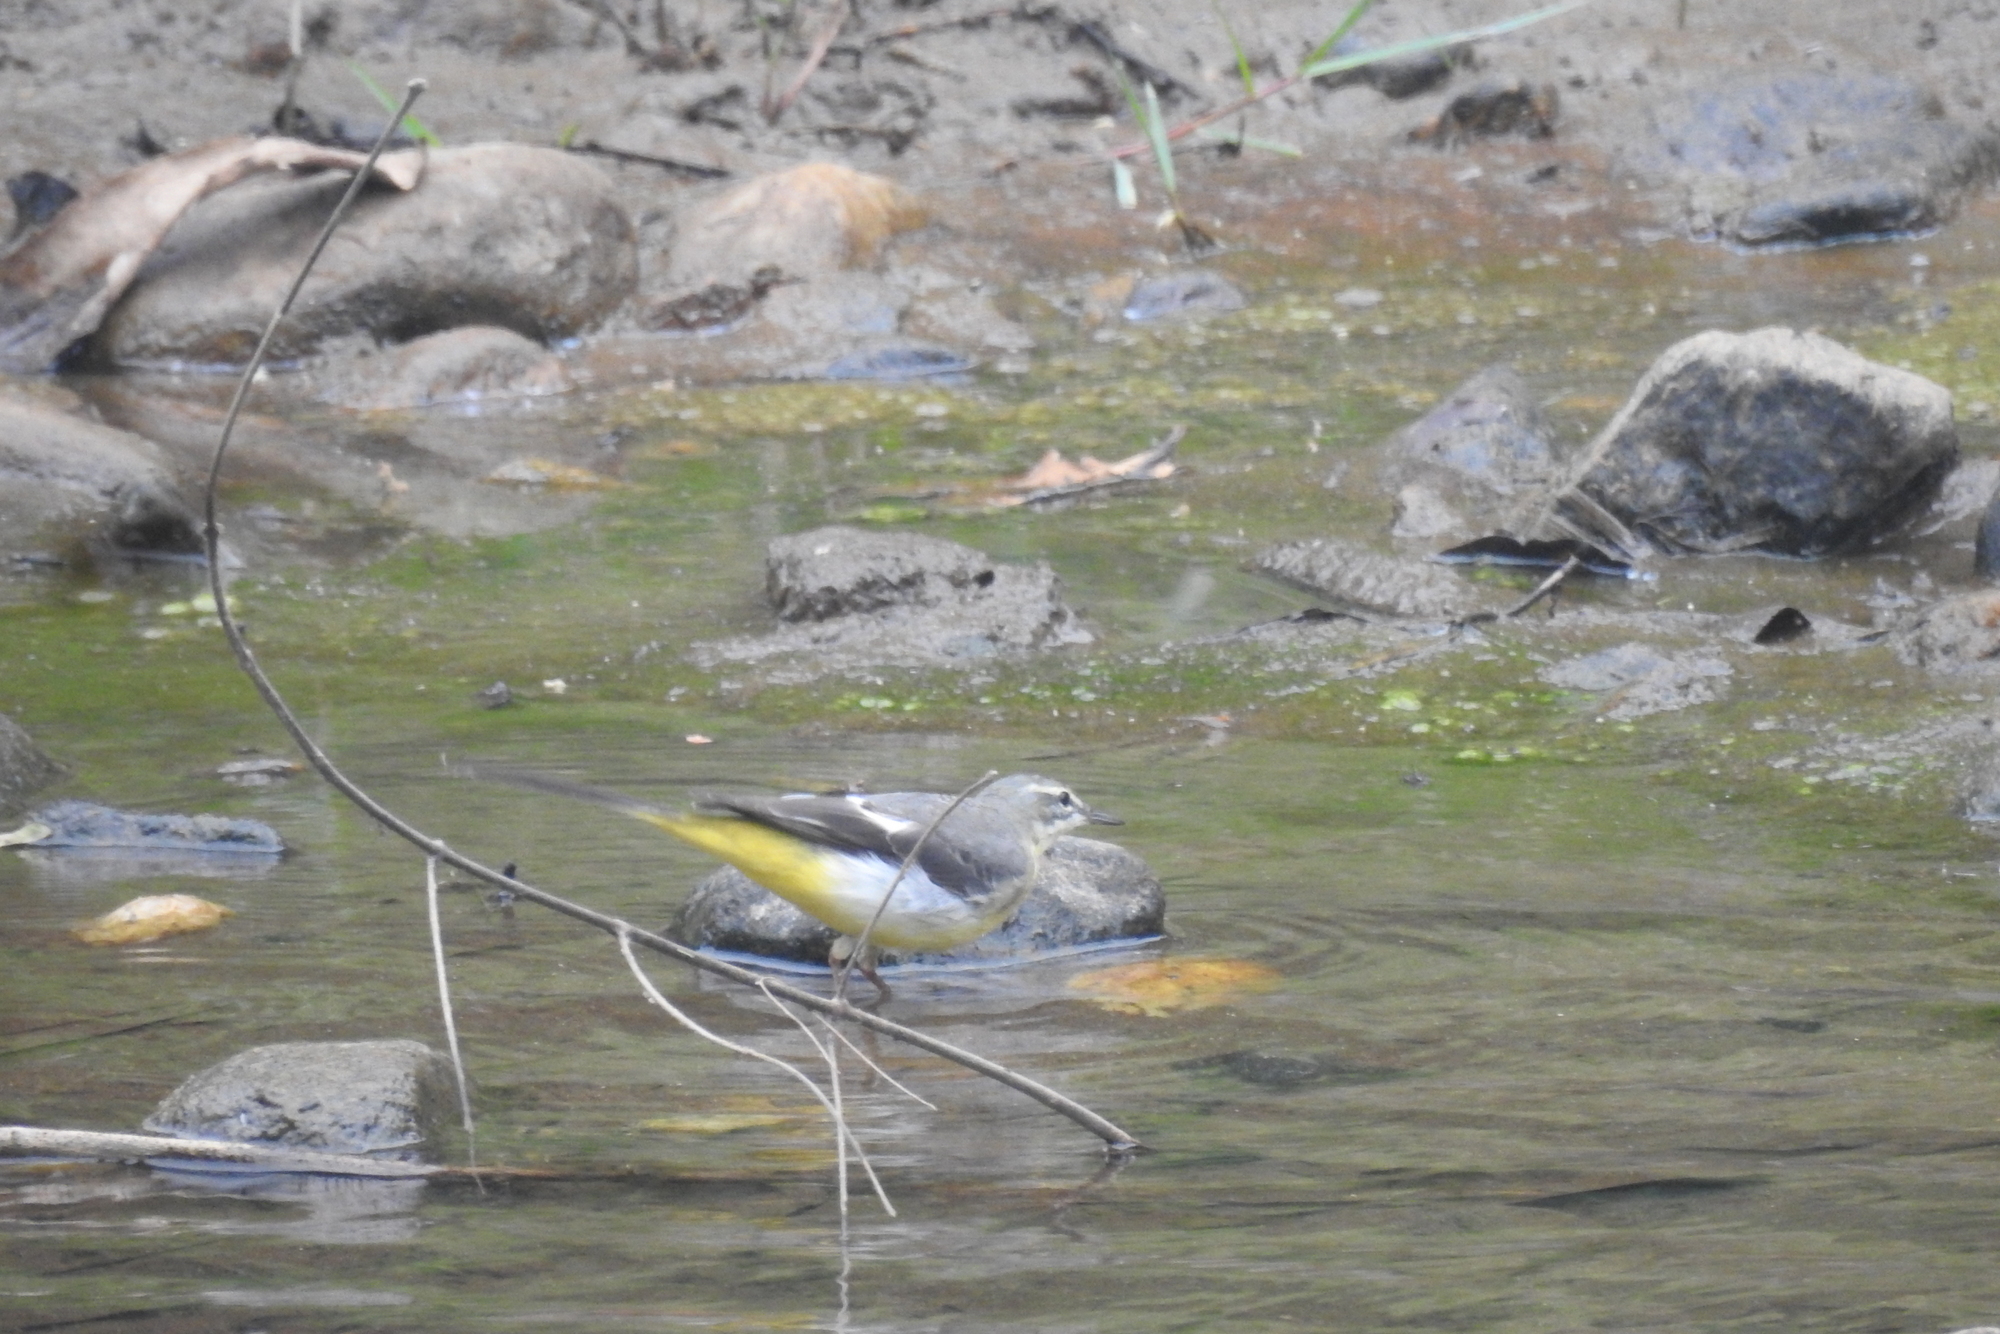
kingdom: Animalia
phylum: Chordata
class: Aves
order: Passeriformes
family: Motacillidae
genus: Motacilla
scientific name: Motacilla cinerea
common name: Grey wagtail
